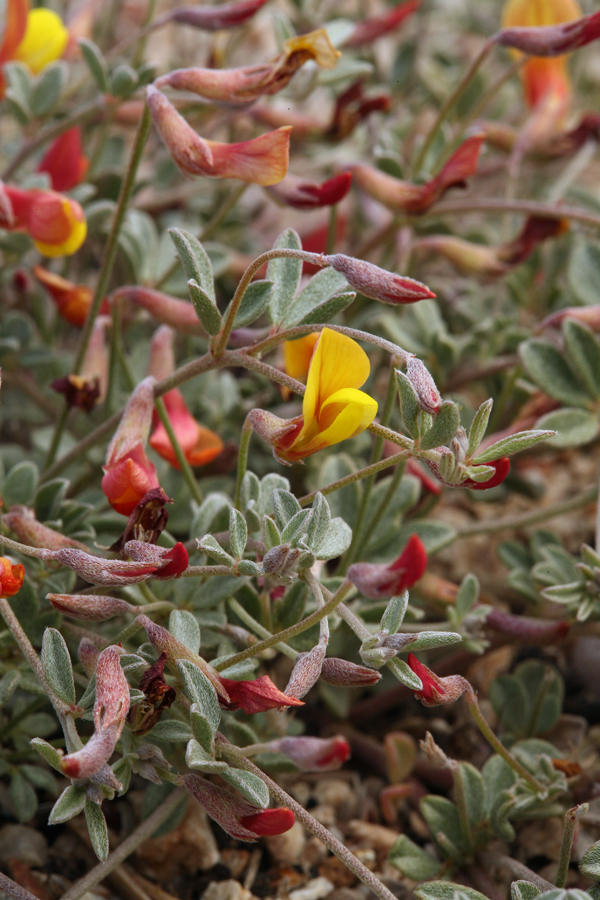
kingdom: Plantae
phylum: Tracheophyta
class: Magnoliopsida
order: Fabales
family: Fabaceae
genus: Acmispon
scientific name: Acmispon argyraeus
